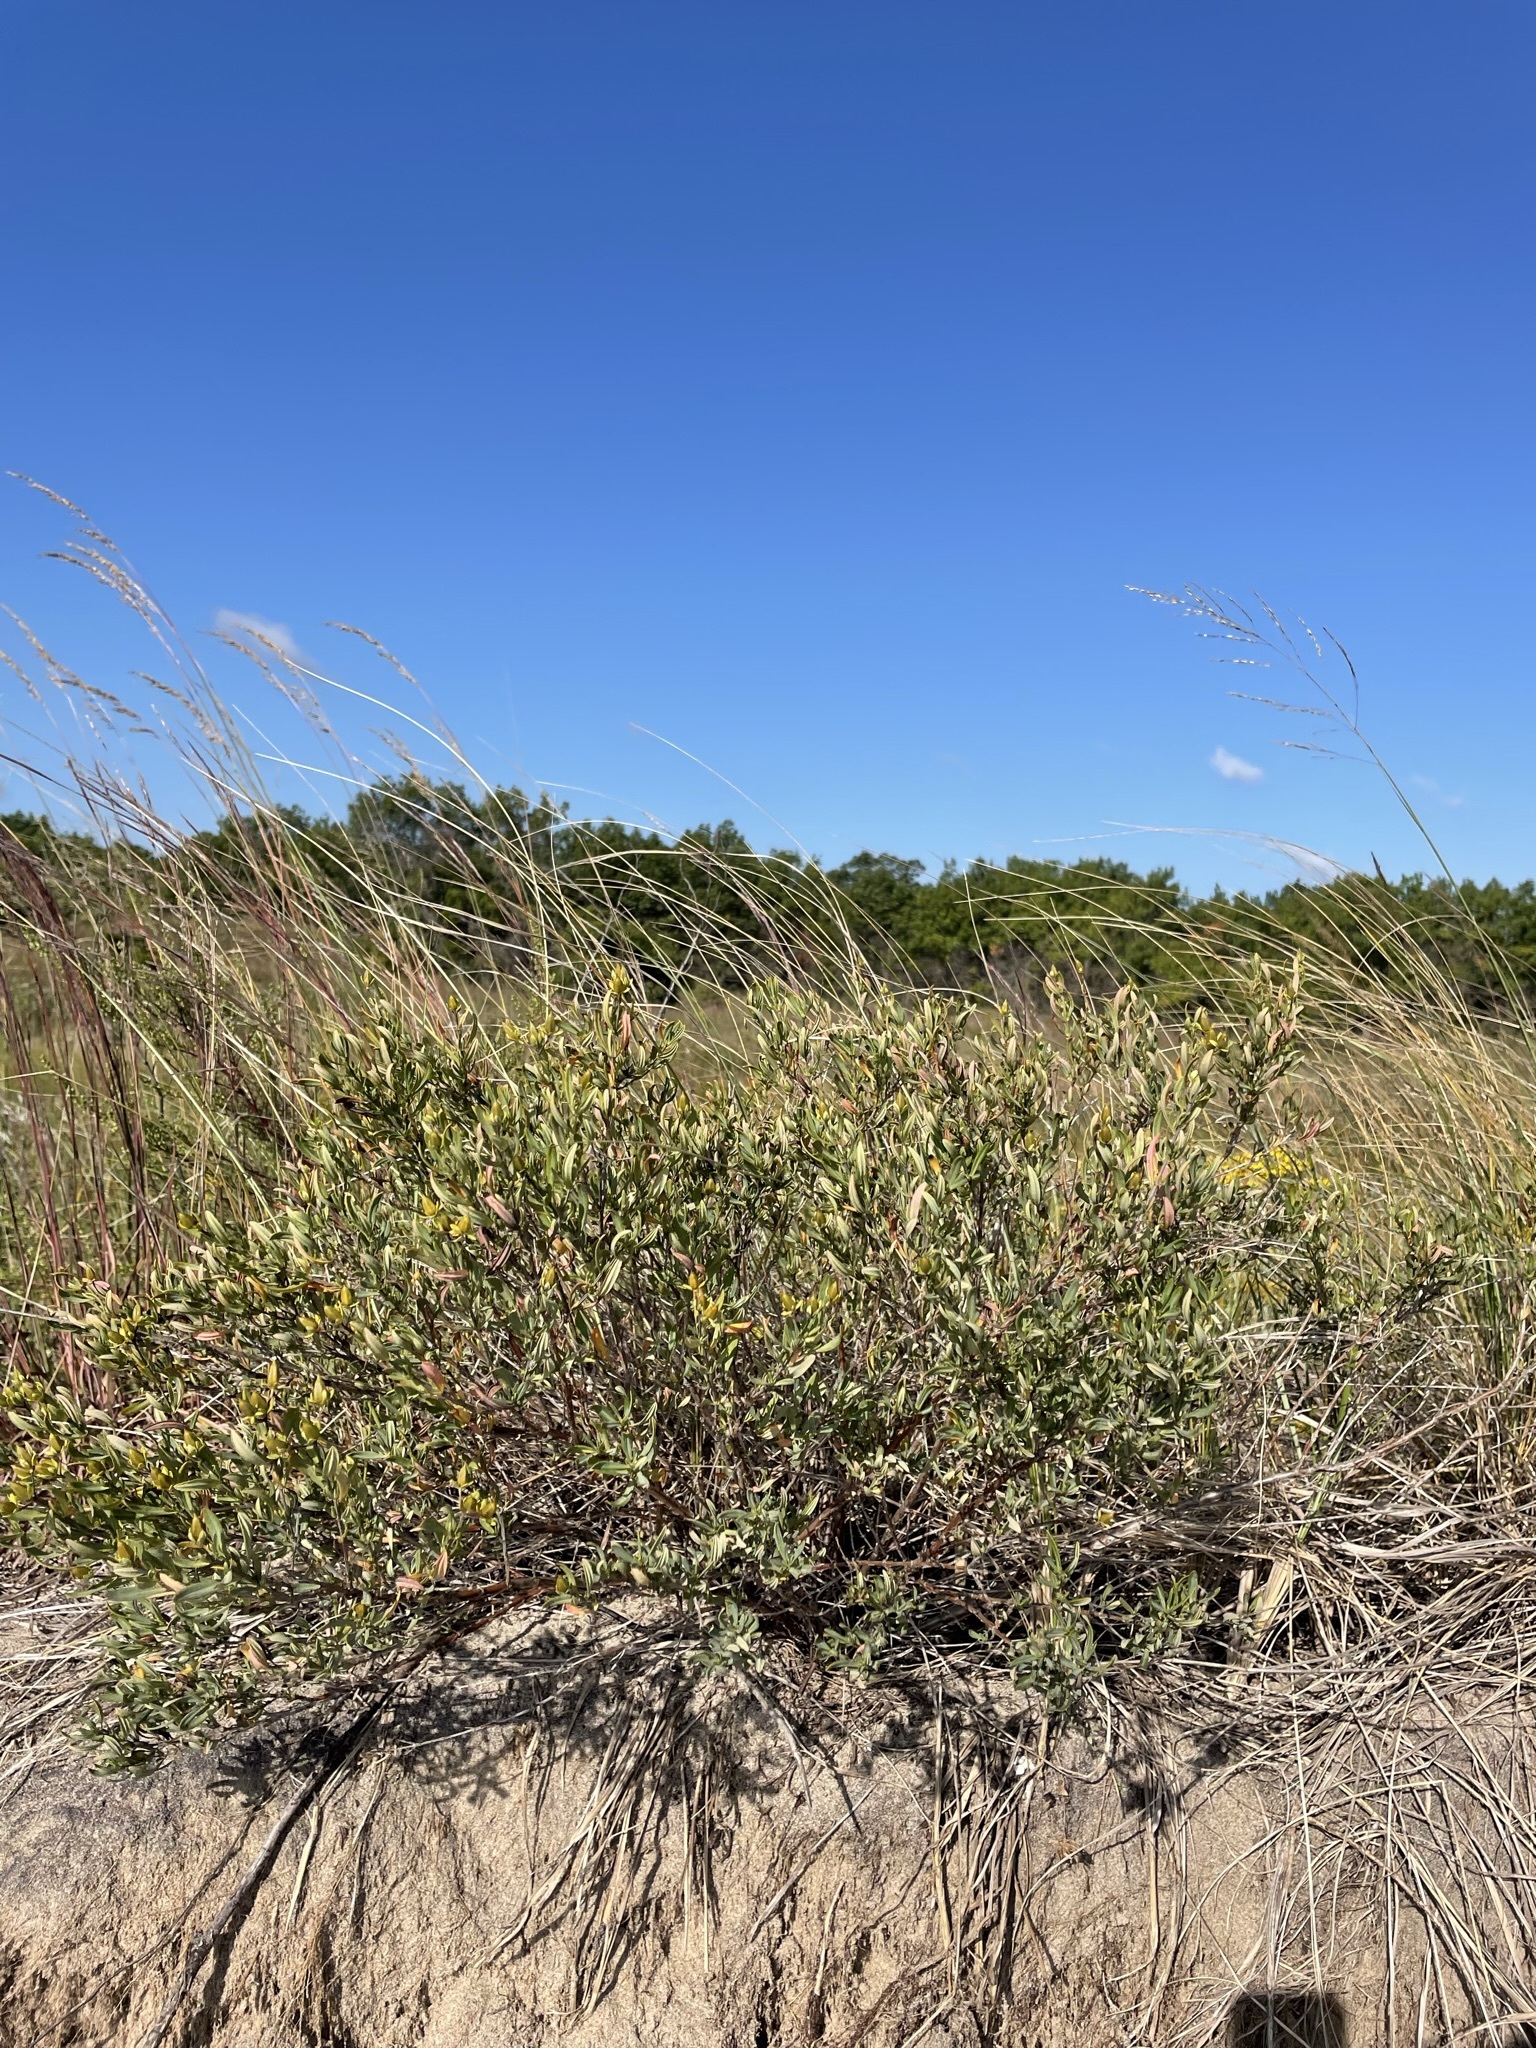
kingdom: Plantae
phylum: Tracheophyta
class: Magnoliopsida
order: Malpighiales
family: Hypericaceae
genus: Hypericum
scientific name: Hypericum kalmianum
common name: Kalm's st. john's-wort
